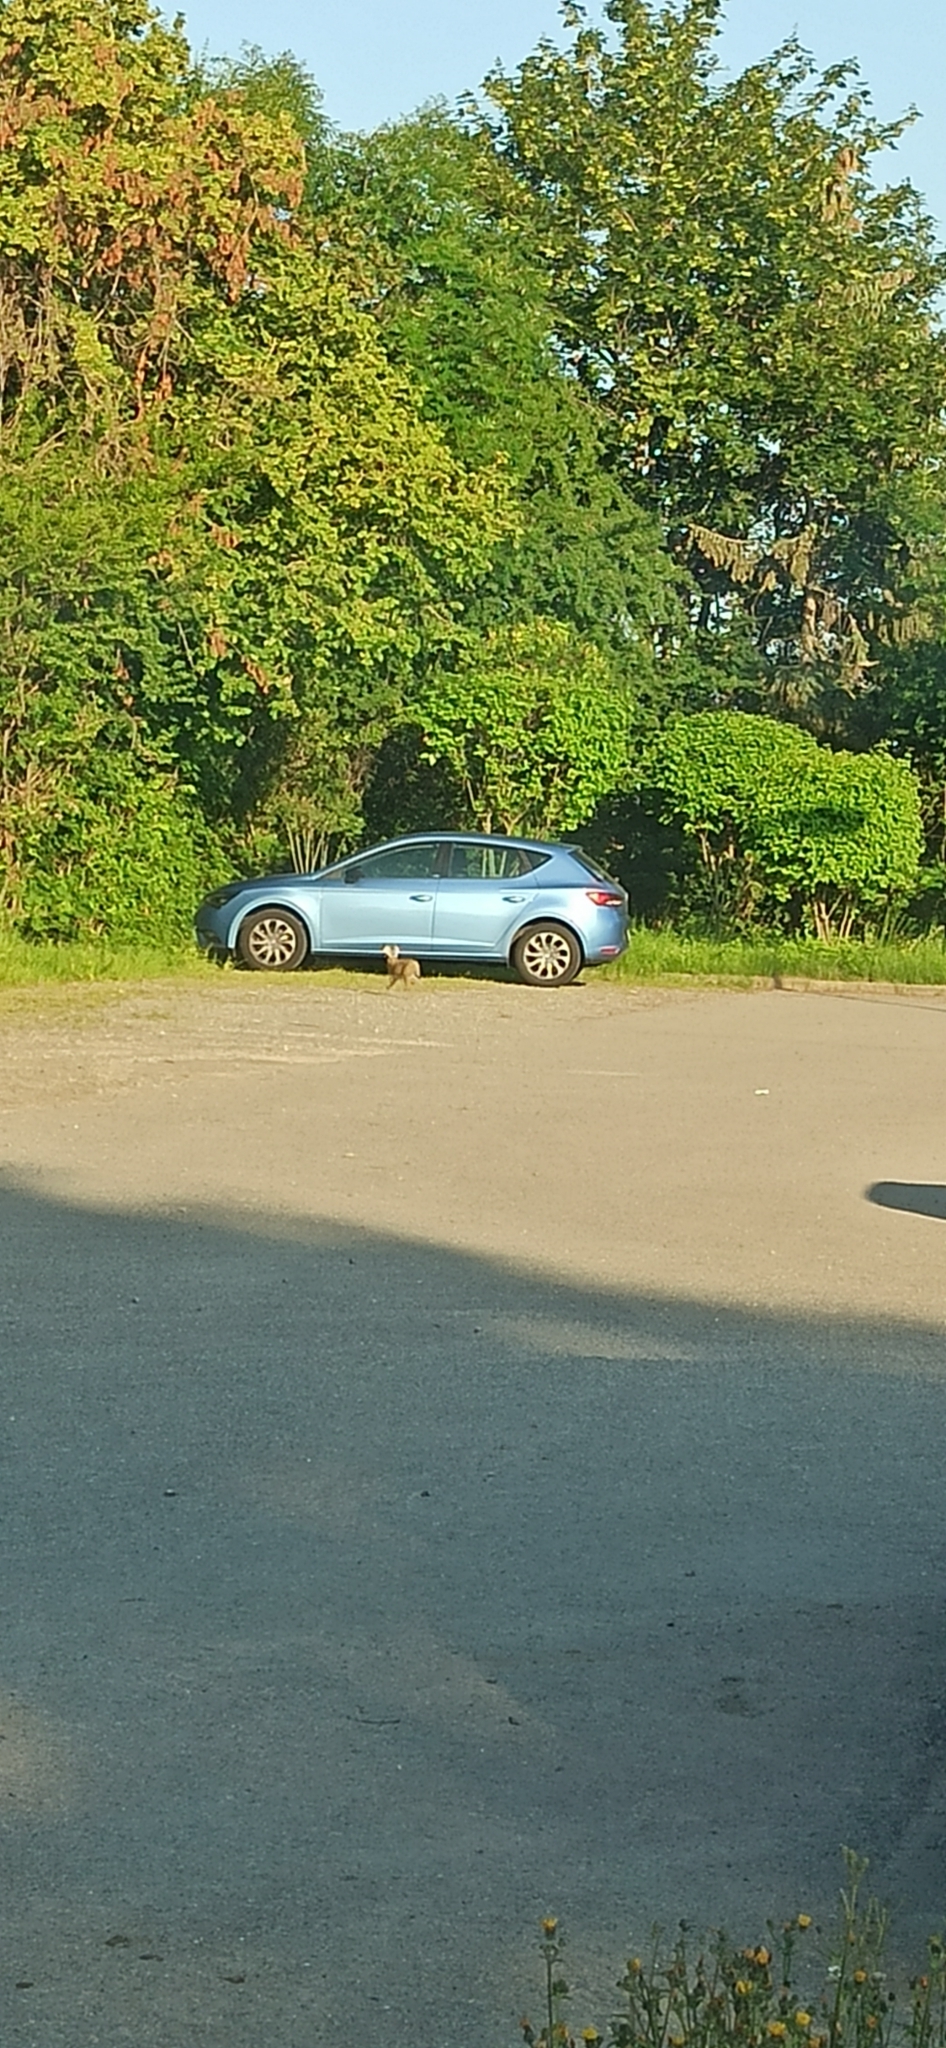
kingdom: Animalia
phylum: Chordata
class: Mammalia
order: Lagomorpha
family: Leporidae
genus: Lepus
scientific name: Lepus europaeus
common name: European hare
